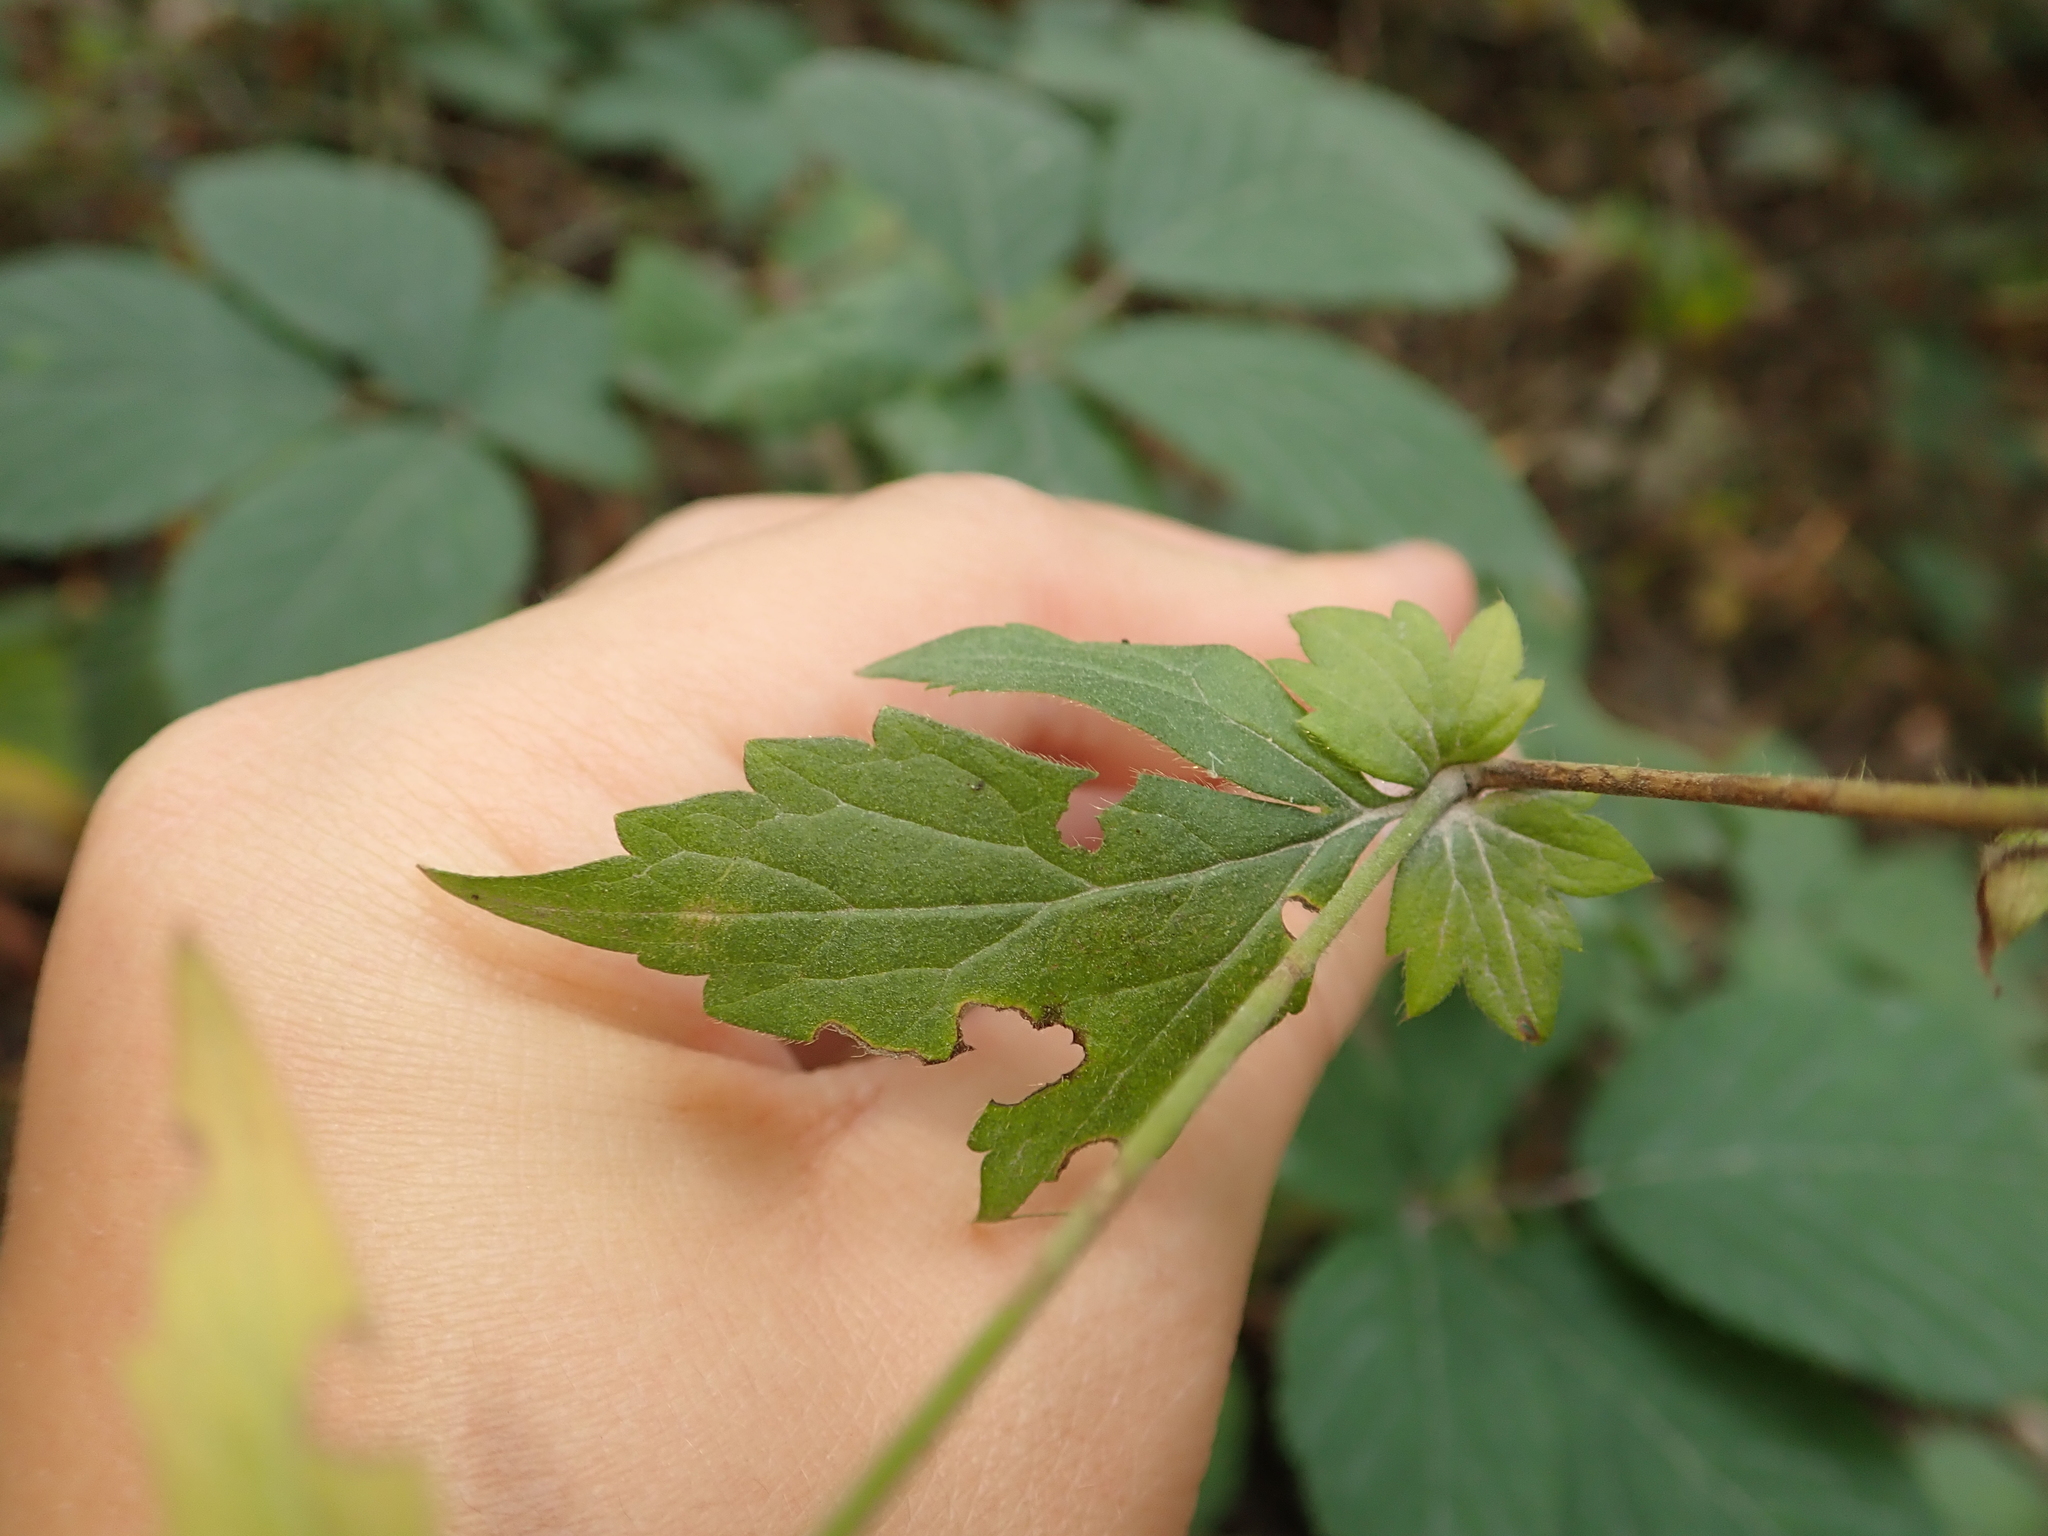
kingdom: Plantae
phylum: Tracheophyta
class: Magnoliopsida
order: Rosales
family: Rosaceae
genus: Geum
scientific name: Geum urbanum
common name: Wood avens
